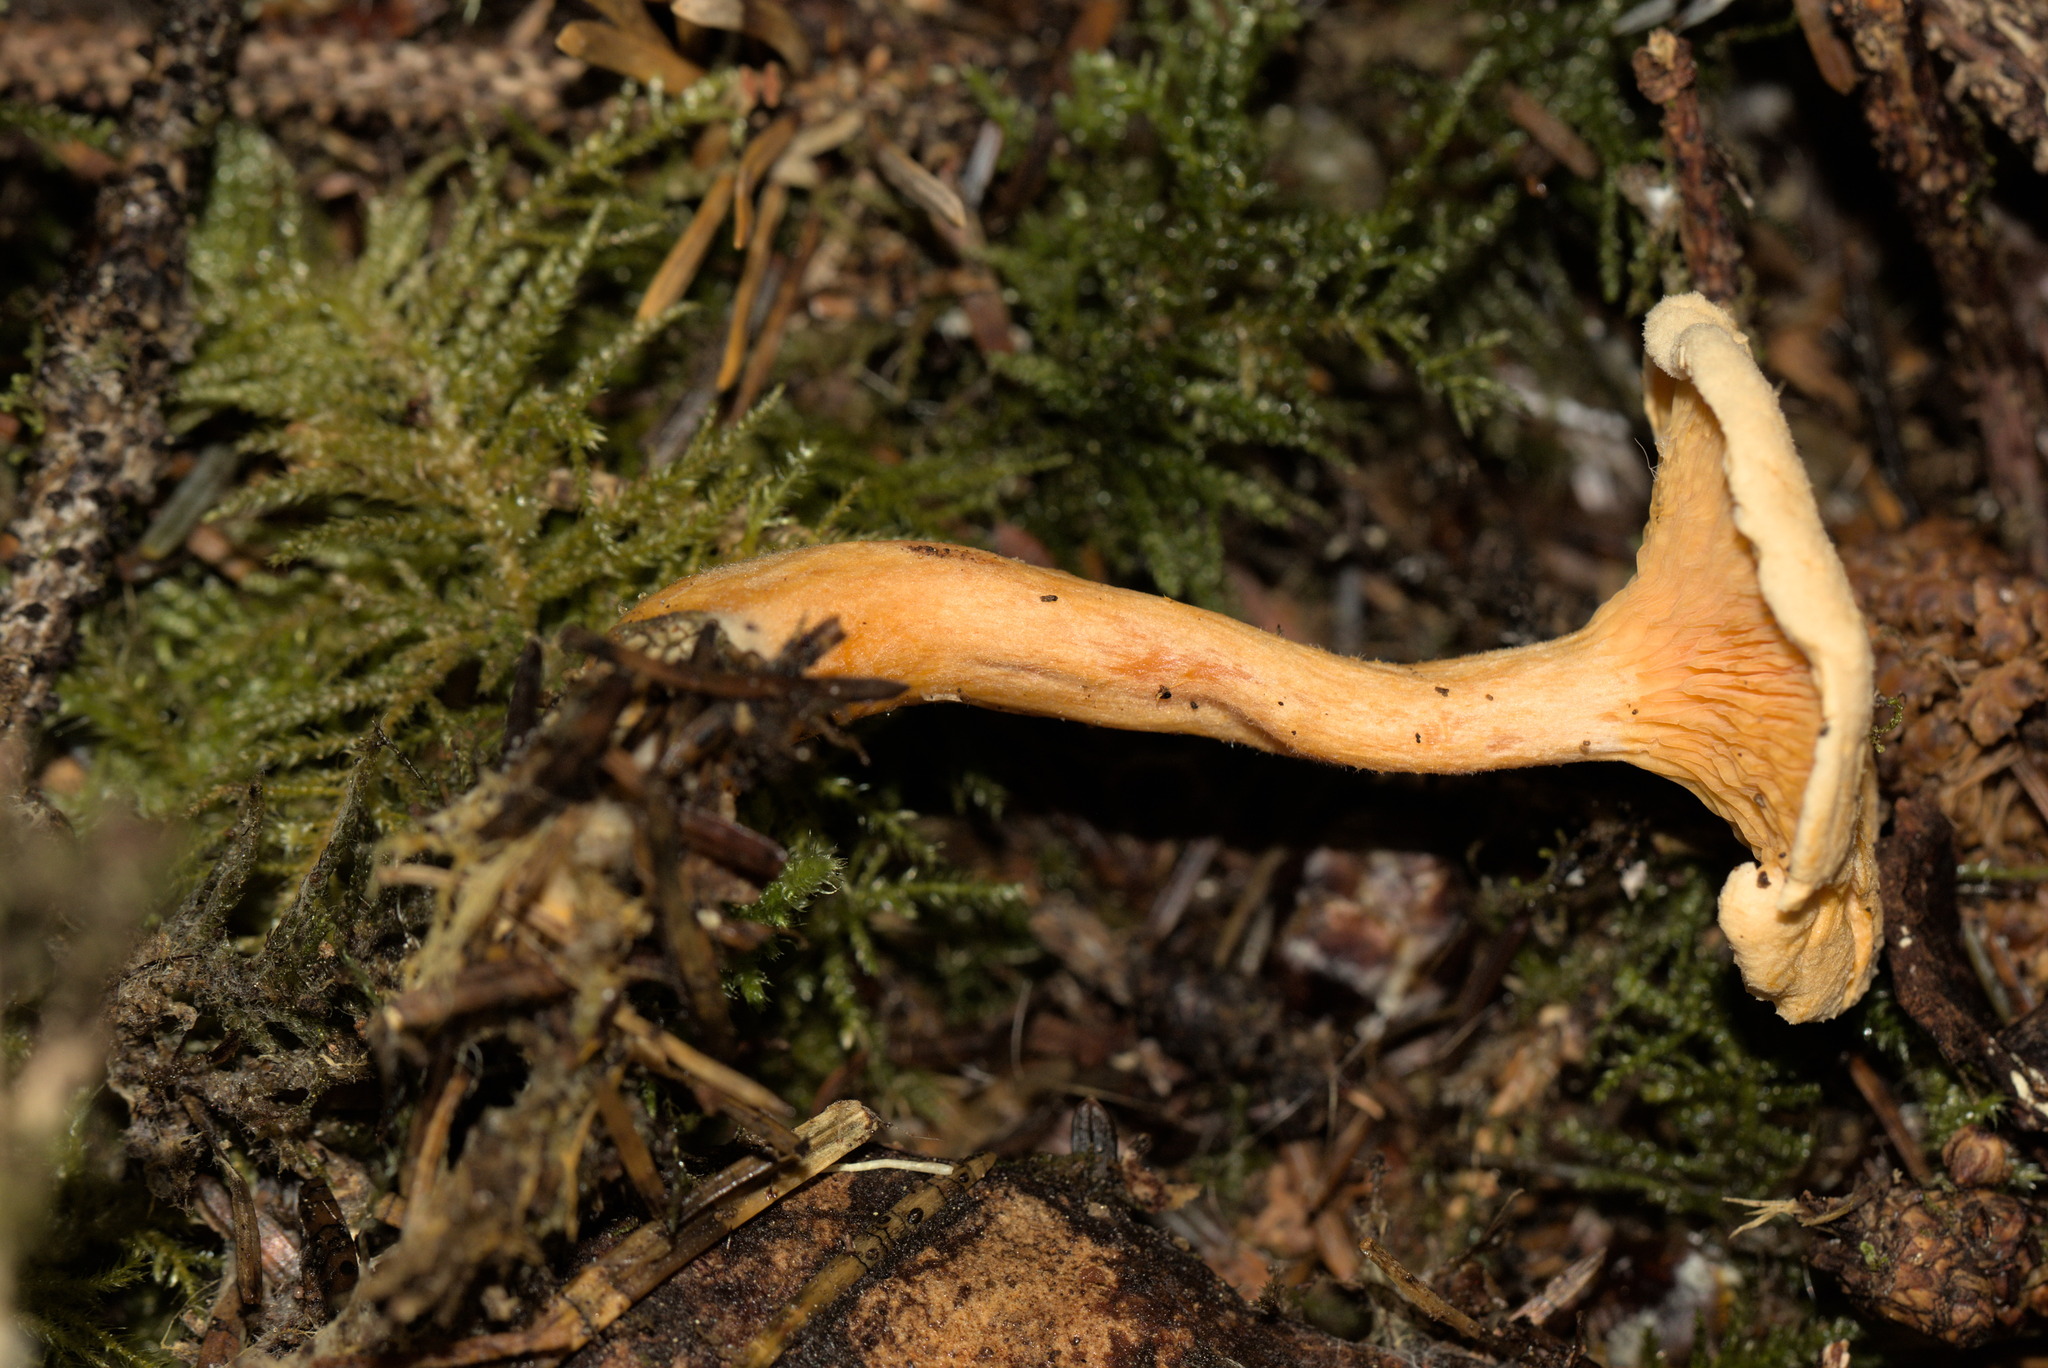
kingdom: Fungi
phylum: Basidiomycota
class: Agaricomycetes
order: Boletales
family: Hygrophoropsidaceae
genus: Hygrophoropsis
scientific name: Hygrophoropsis aurantiaca
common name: False chanterelle
